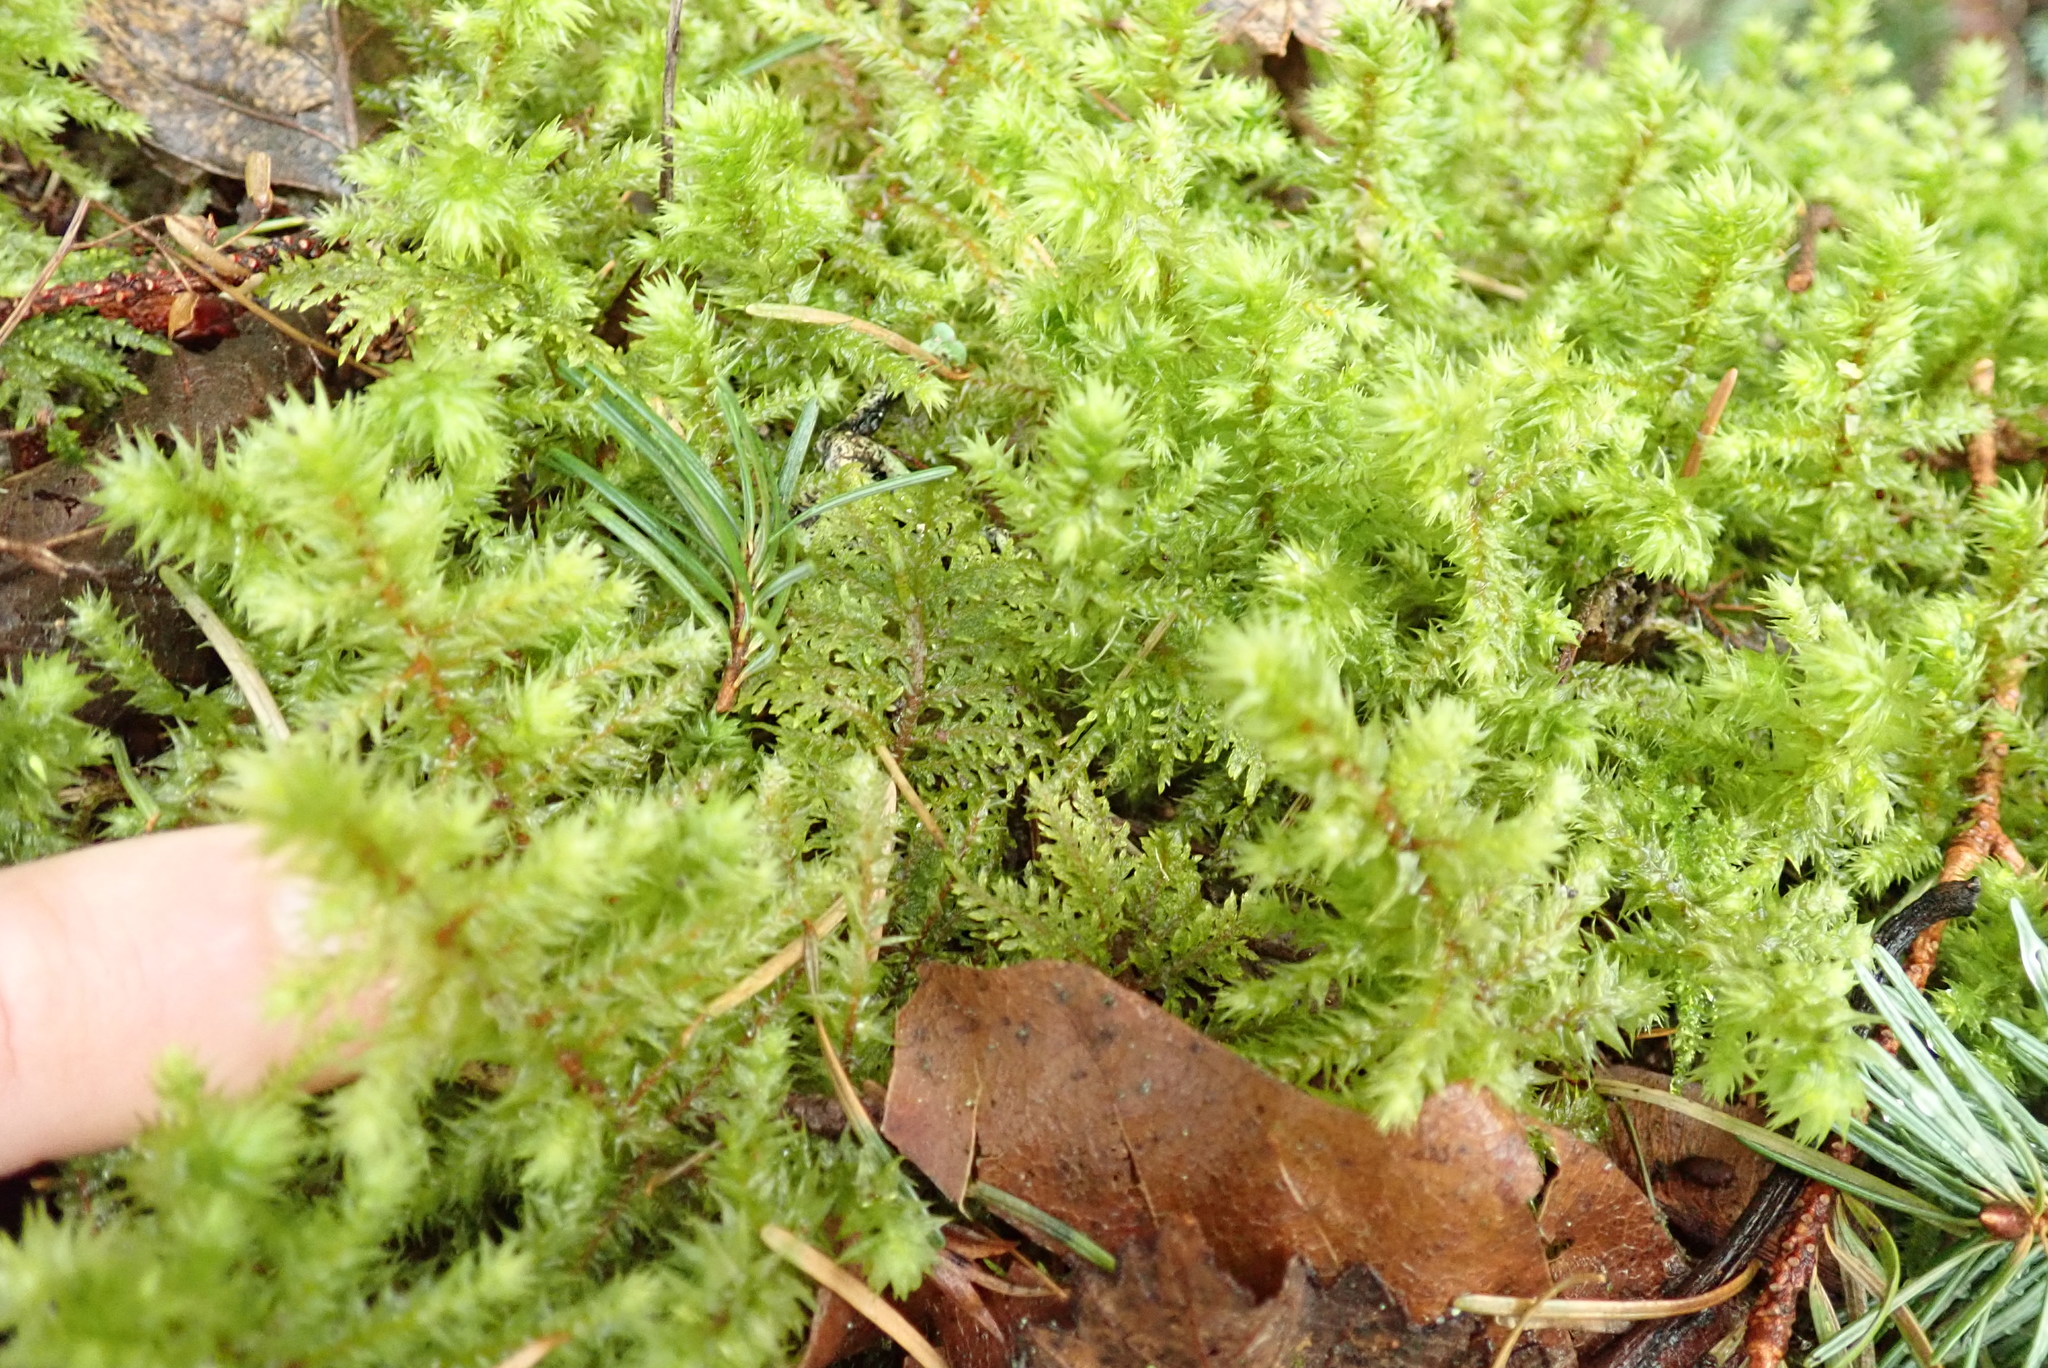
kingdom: Plantae
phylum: Bryophyta
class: Bryopsida
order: Hypnales
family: Hylocomiaceae
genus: Hylocomiadelphus
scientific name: Hylocomiadelphus triquetrus
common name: Rough goose neck moss
